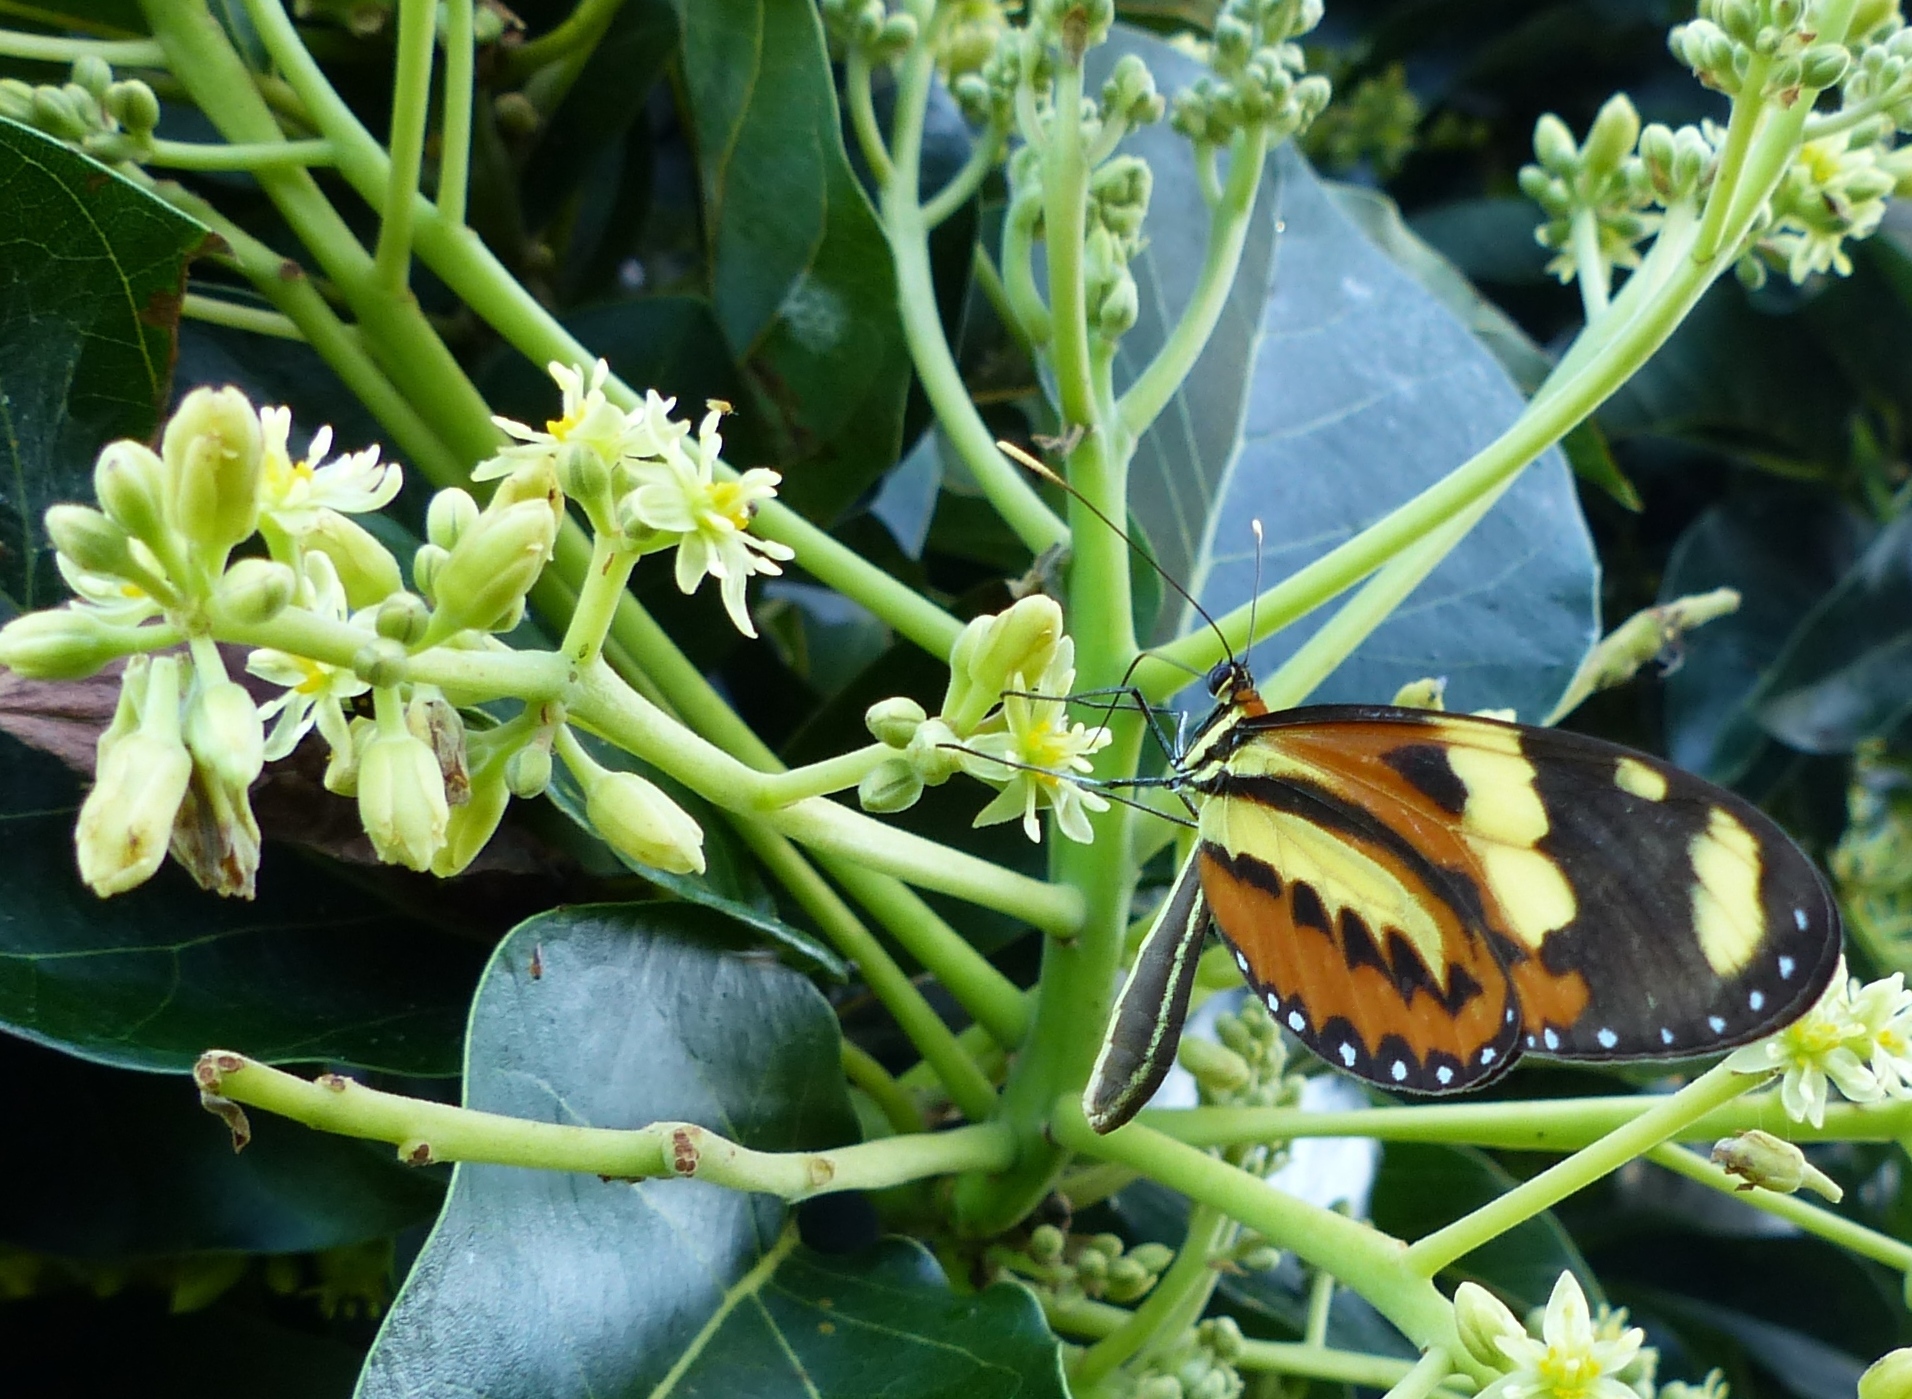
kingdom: Animalia
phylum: Arthropoda
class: Insecta
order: Lepidoptera
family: Nymphalidae
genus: Mechanitis
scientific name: Mechanitis lysimnia
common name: Lysimnia tigerwing
